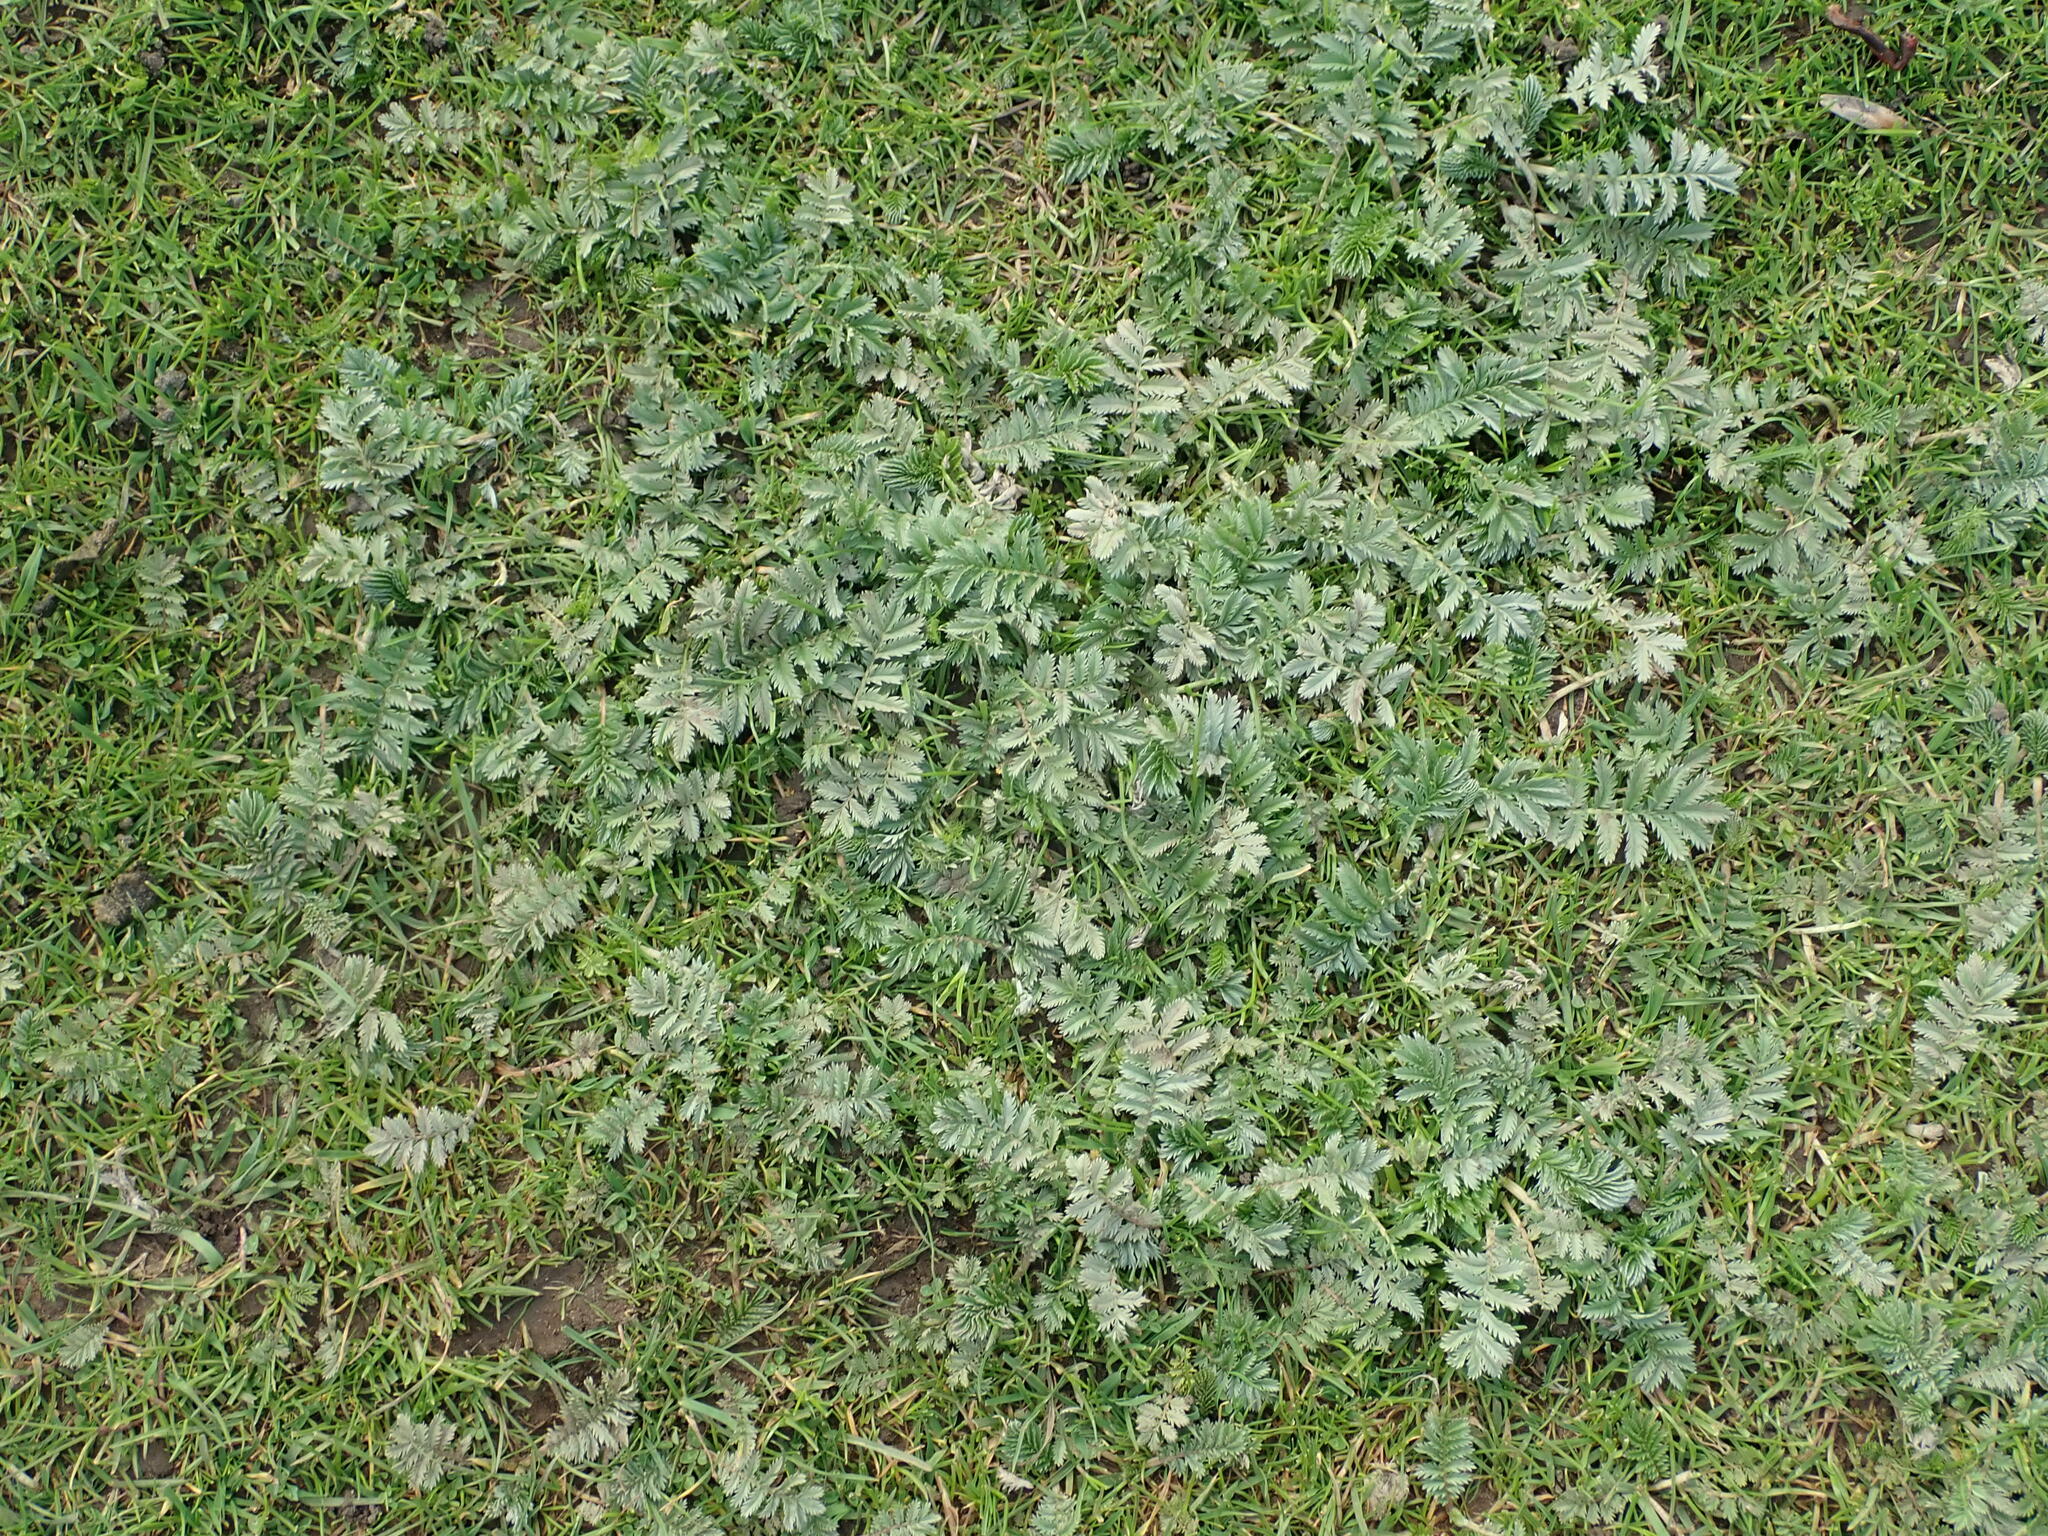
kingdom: Plantae
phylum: Tracheophyta
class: Magnoliopsida
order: Rosales
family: Rosaceae
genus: Argentina
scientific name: Argentina anserina
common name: Common silverweed
